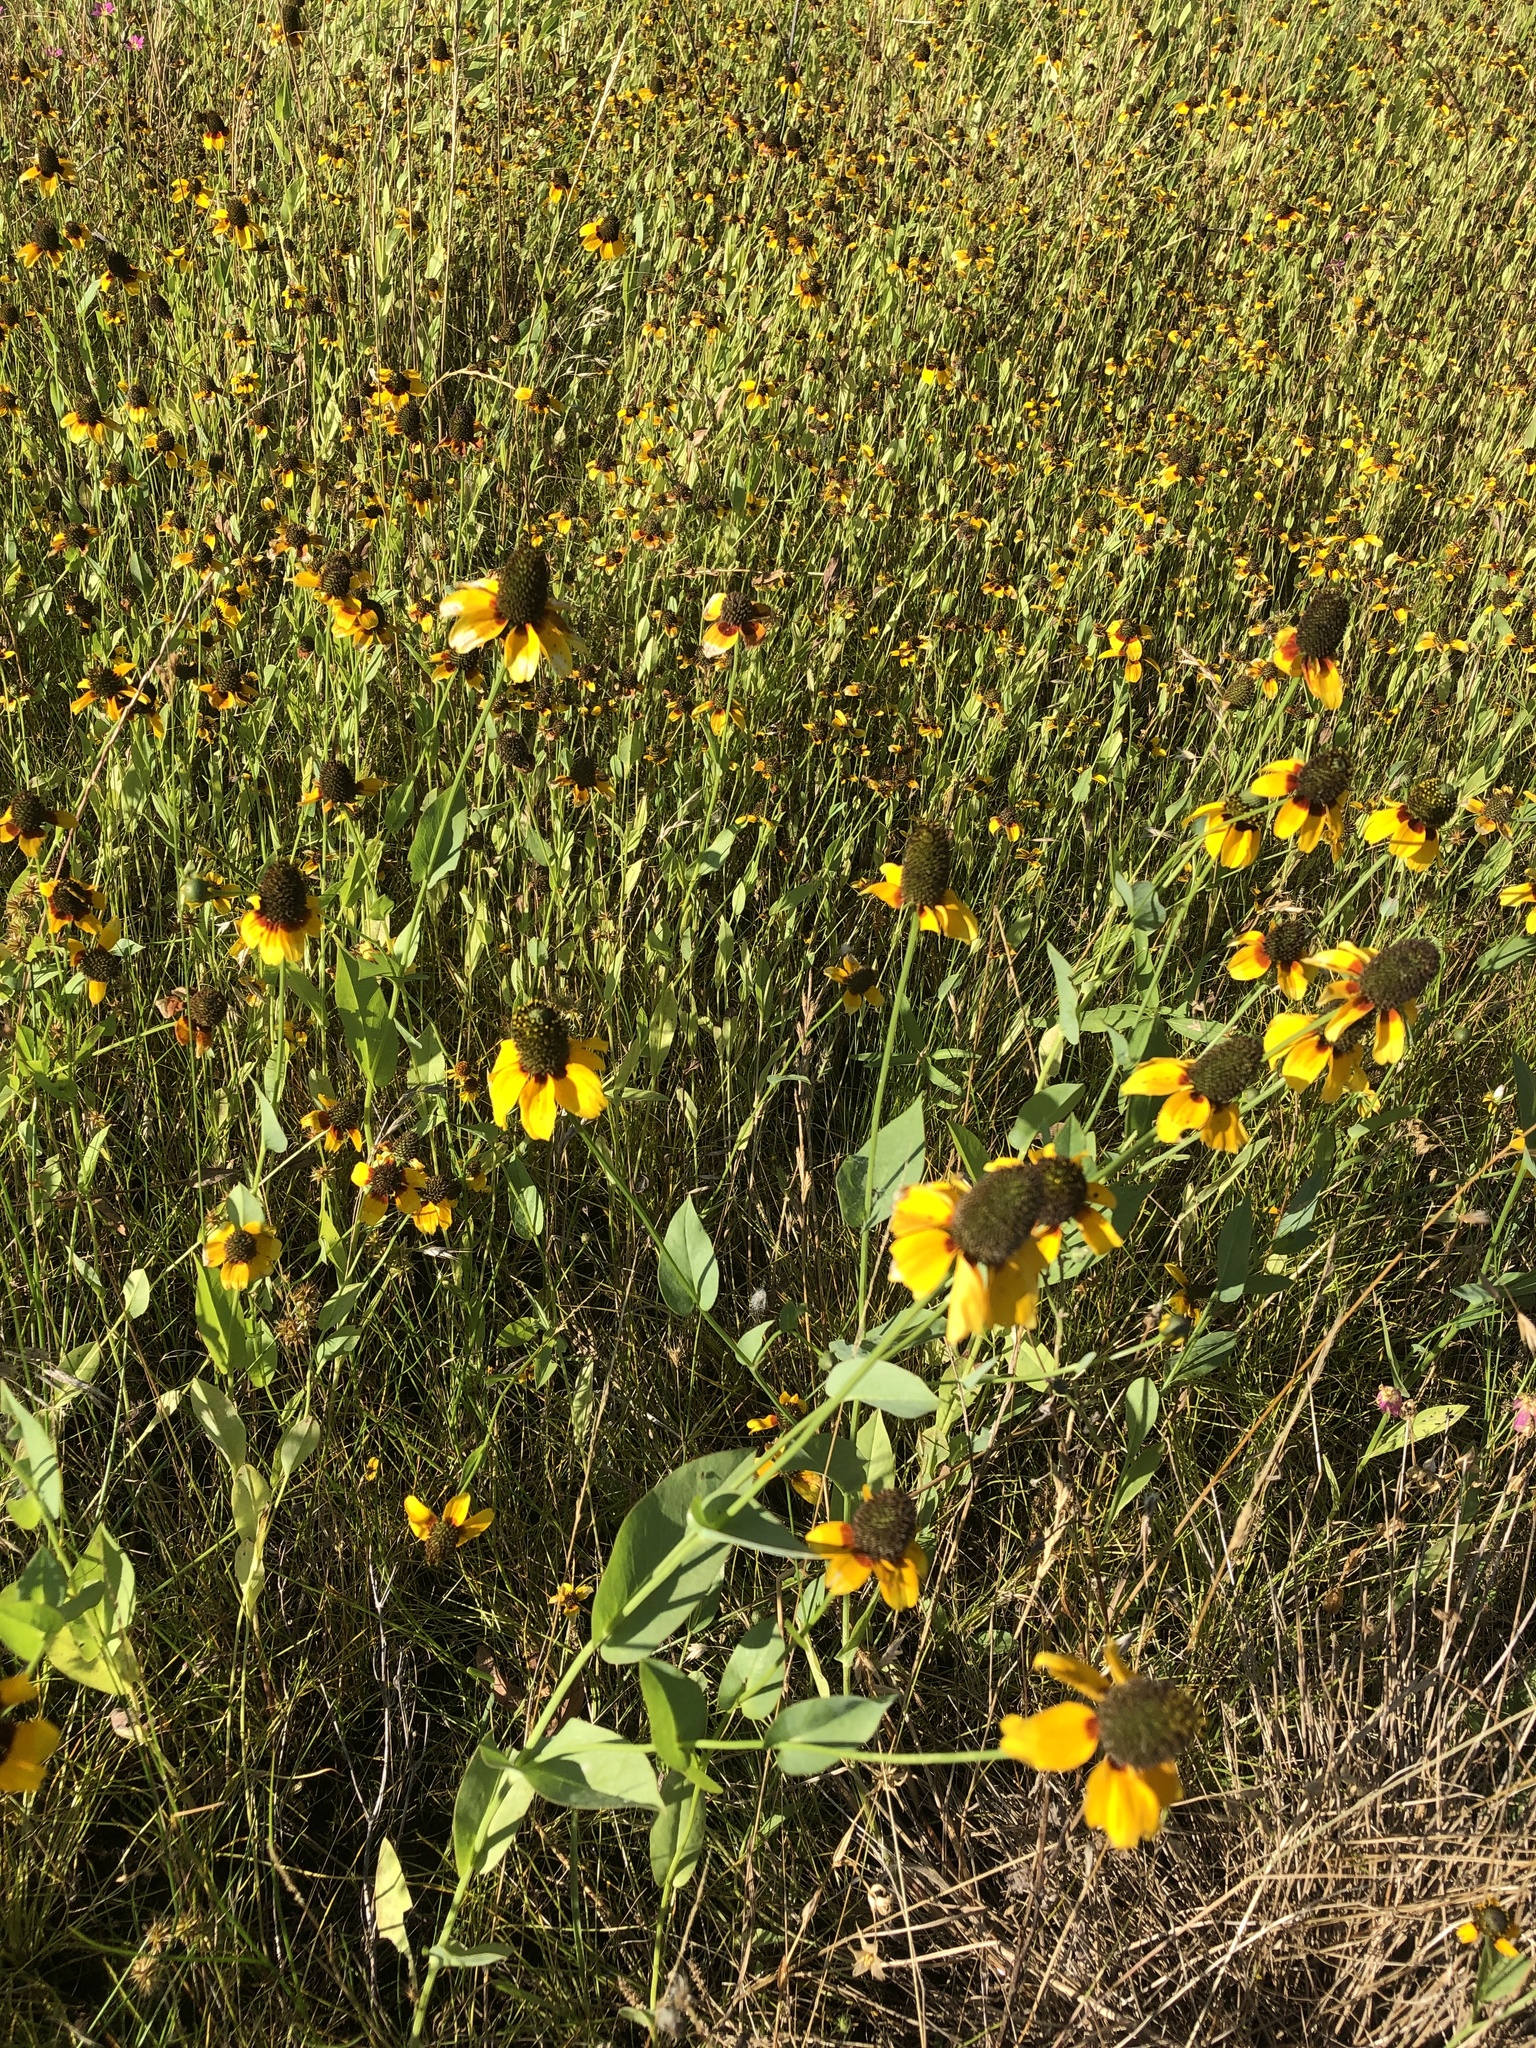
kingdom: Plantae
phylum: Tracheophyta
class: Magnoliopsida
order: Asterales
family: Asteraceae
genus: Rudbeckia
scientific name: Rudbeckia amplexicaulis
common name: Clasping-leaf coneflower
